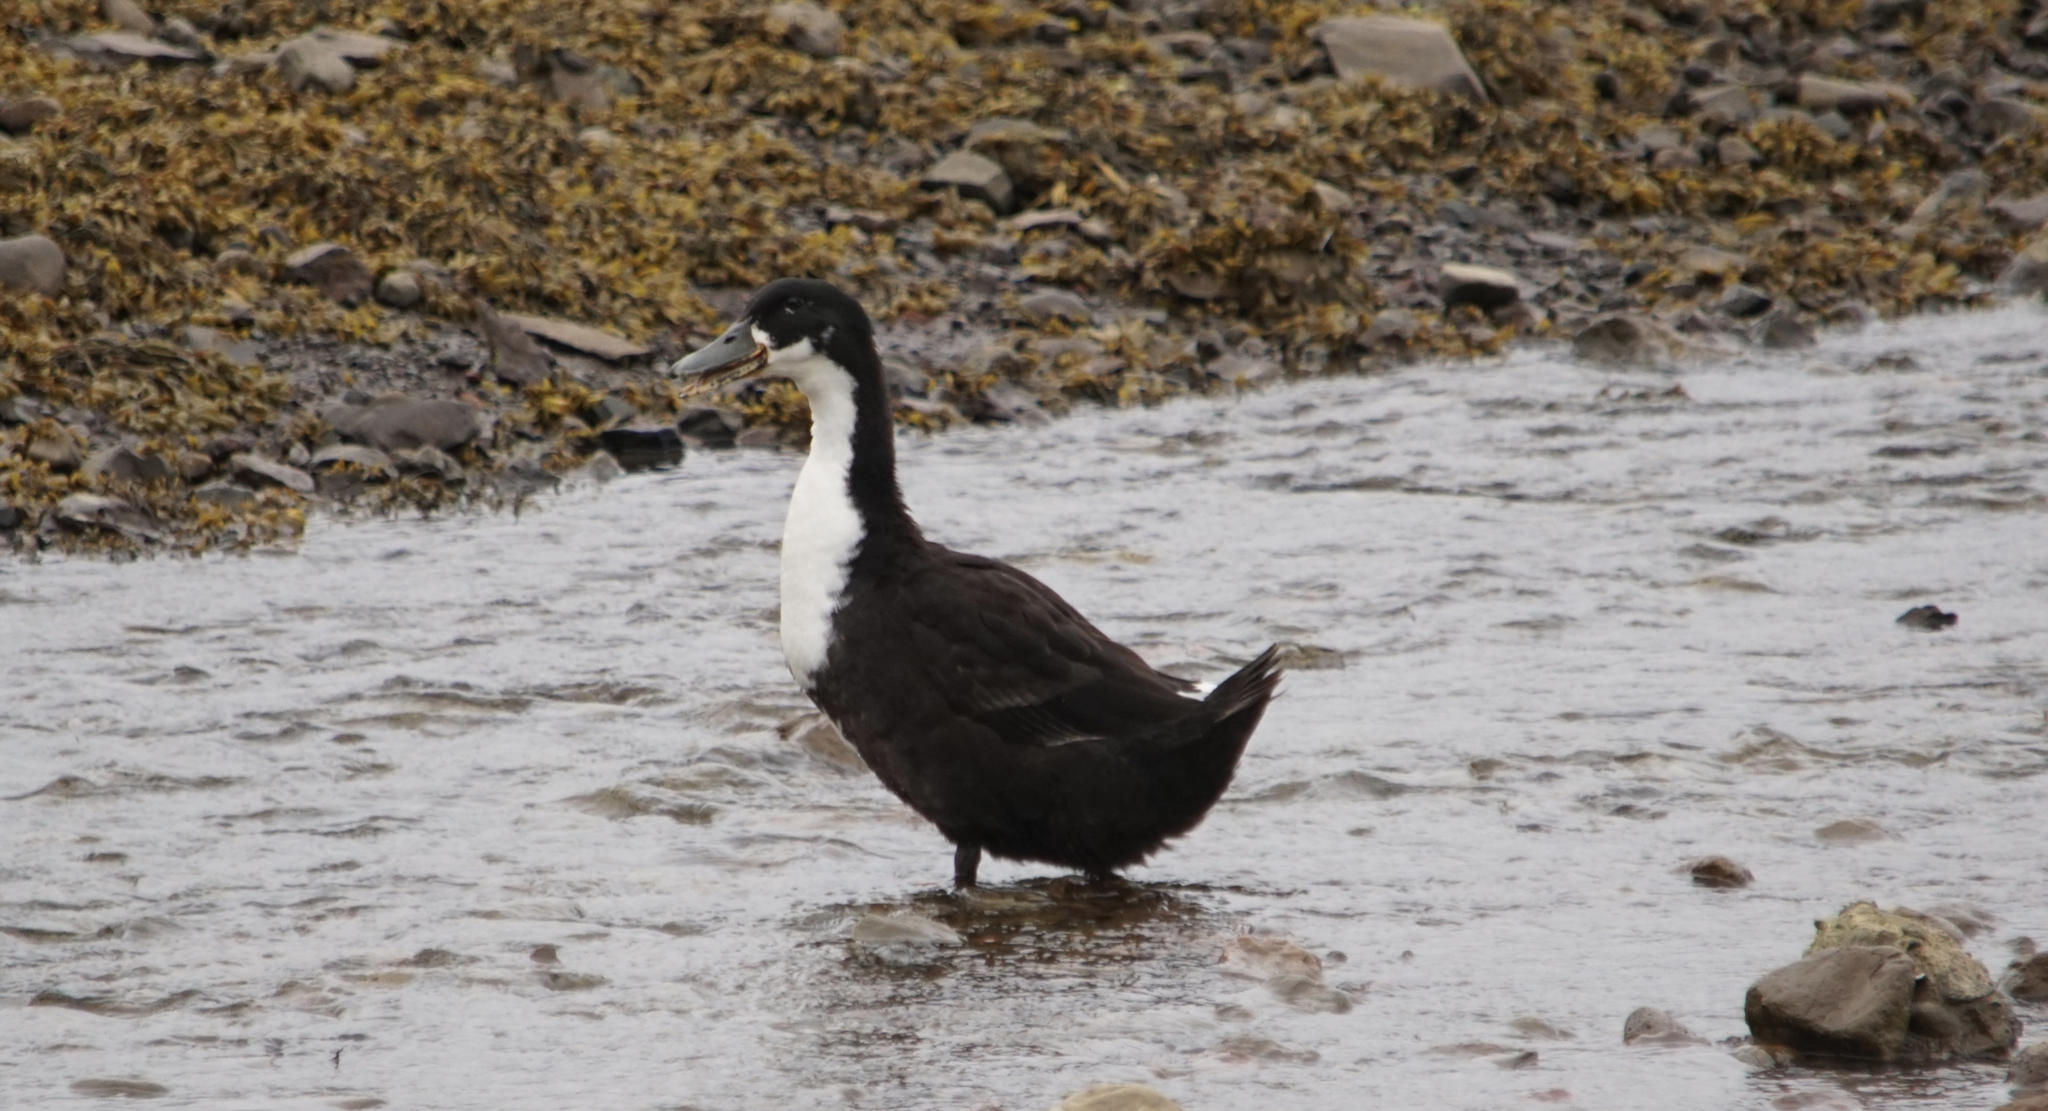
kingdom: Animalia
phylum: Chordata
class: Aves
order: Anseriformes
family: Anatidae
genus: Anas
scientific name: Anas platyrhynchos
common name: Mallard
